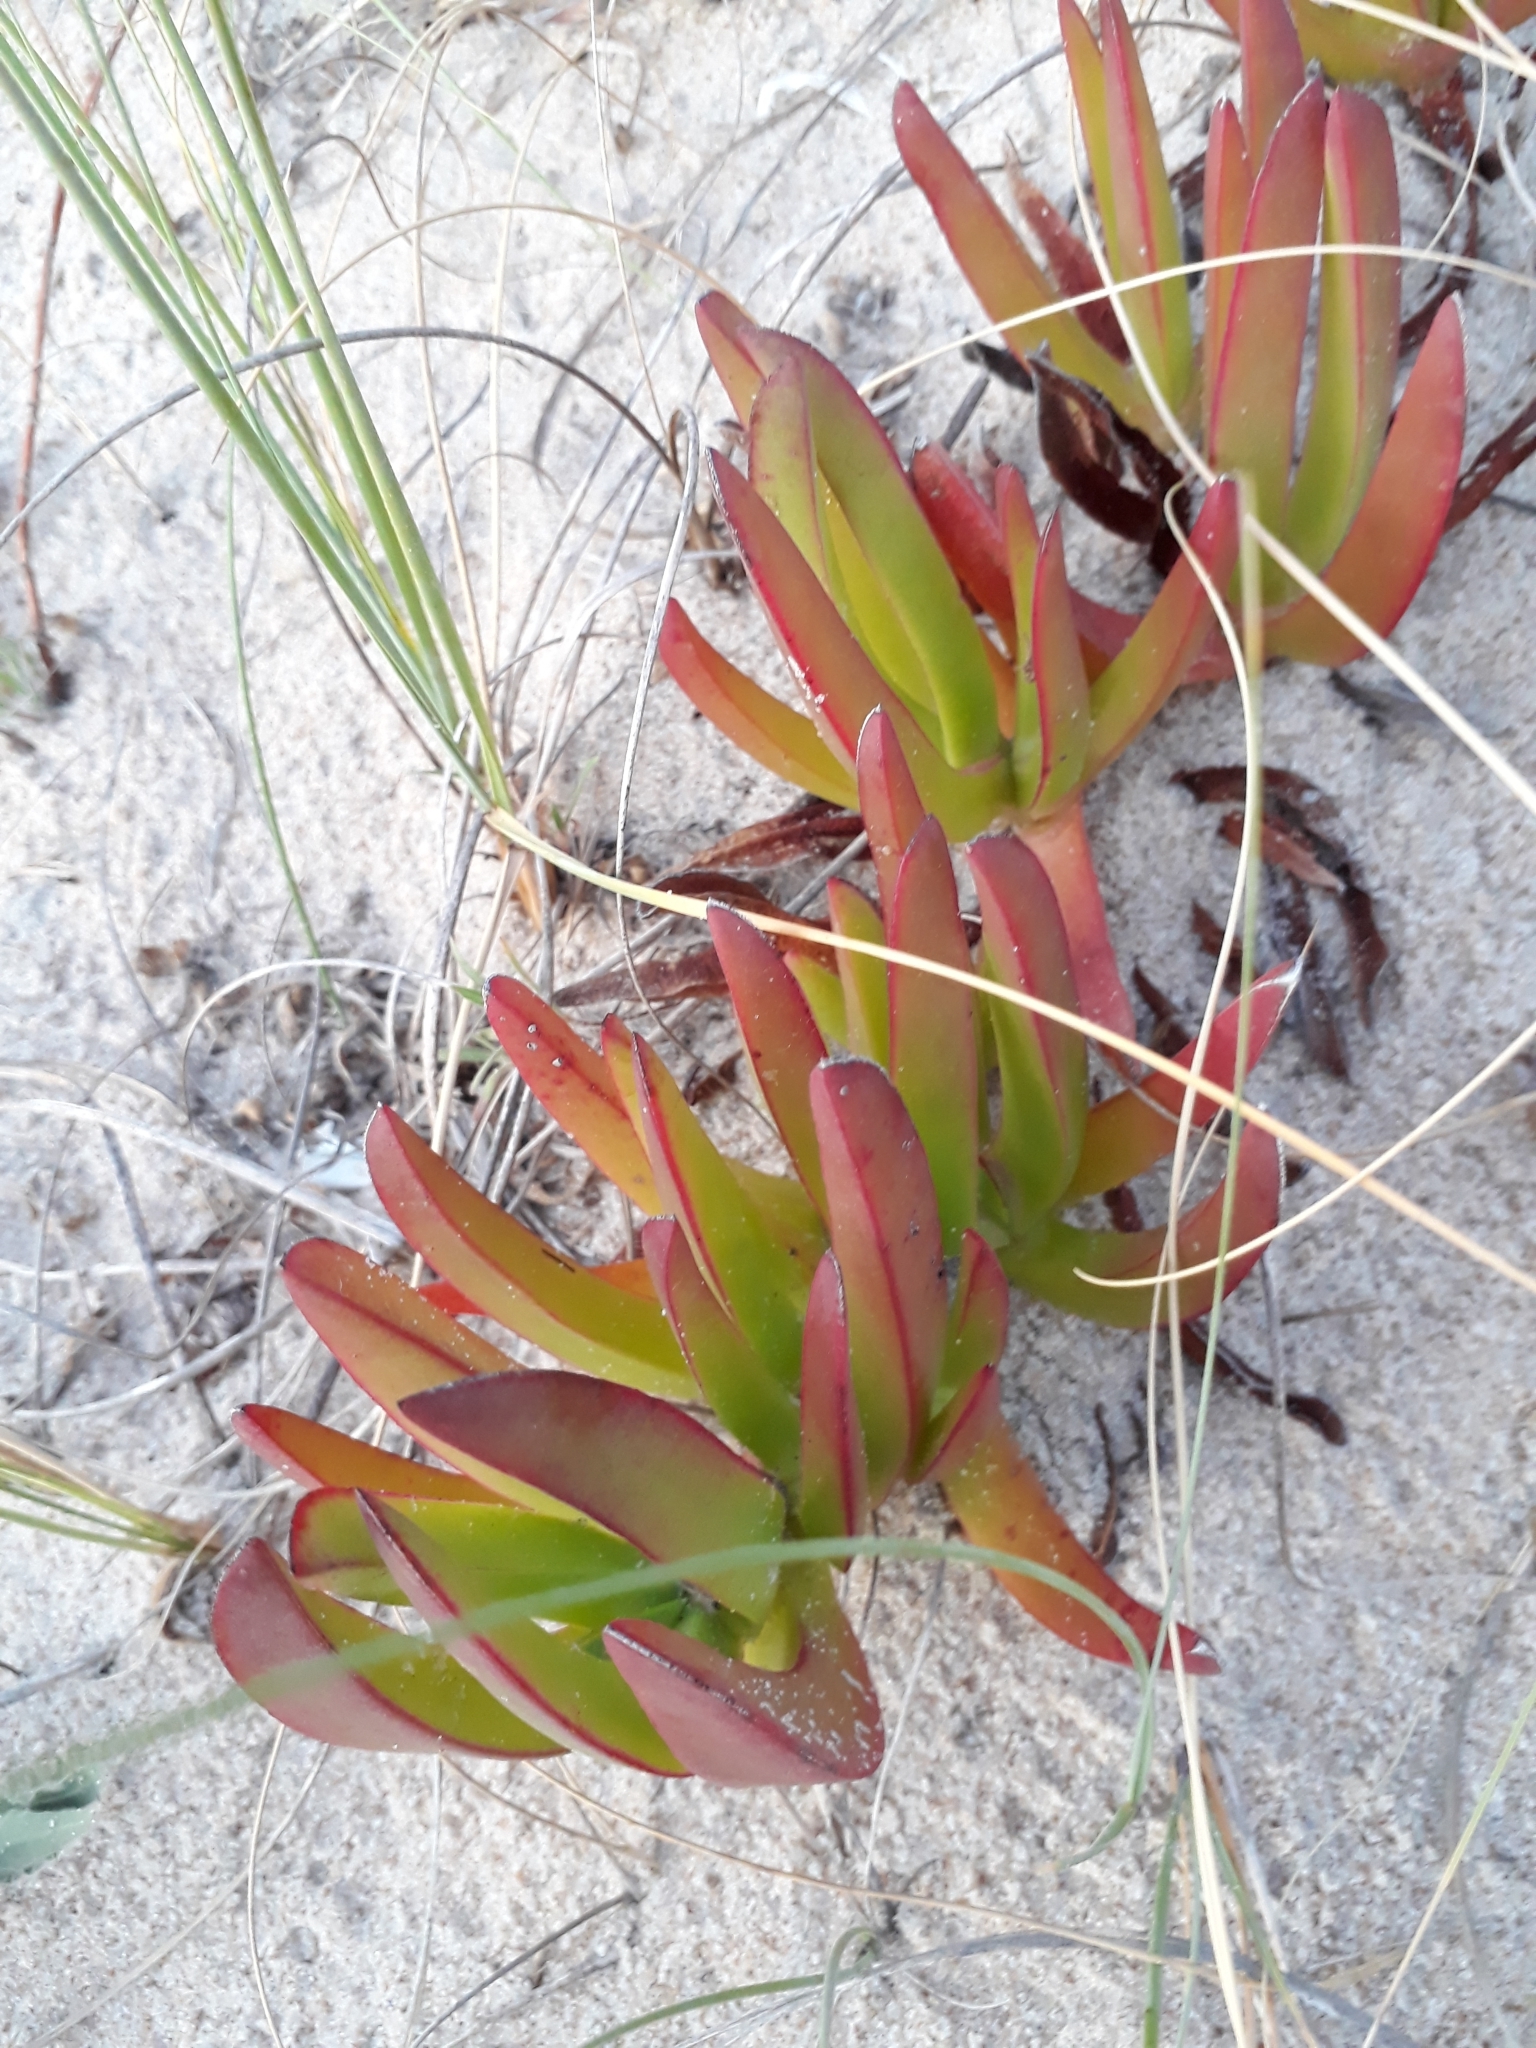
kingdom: Plantae
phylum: Tracheophyta
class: Magnoliopsida
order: Caryophyllales
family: Aizoaceae
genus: Carpobrotus
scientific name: Carpobrotus edulis
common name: Hottentot-fig
